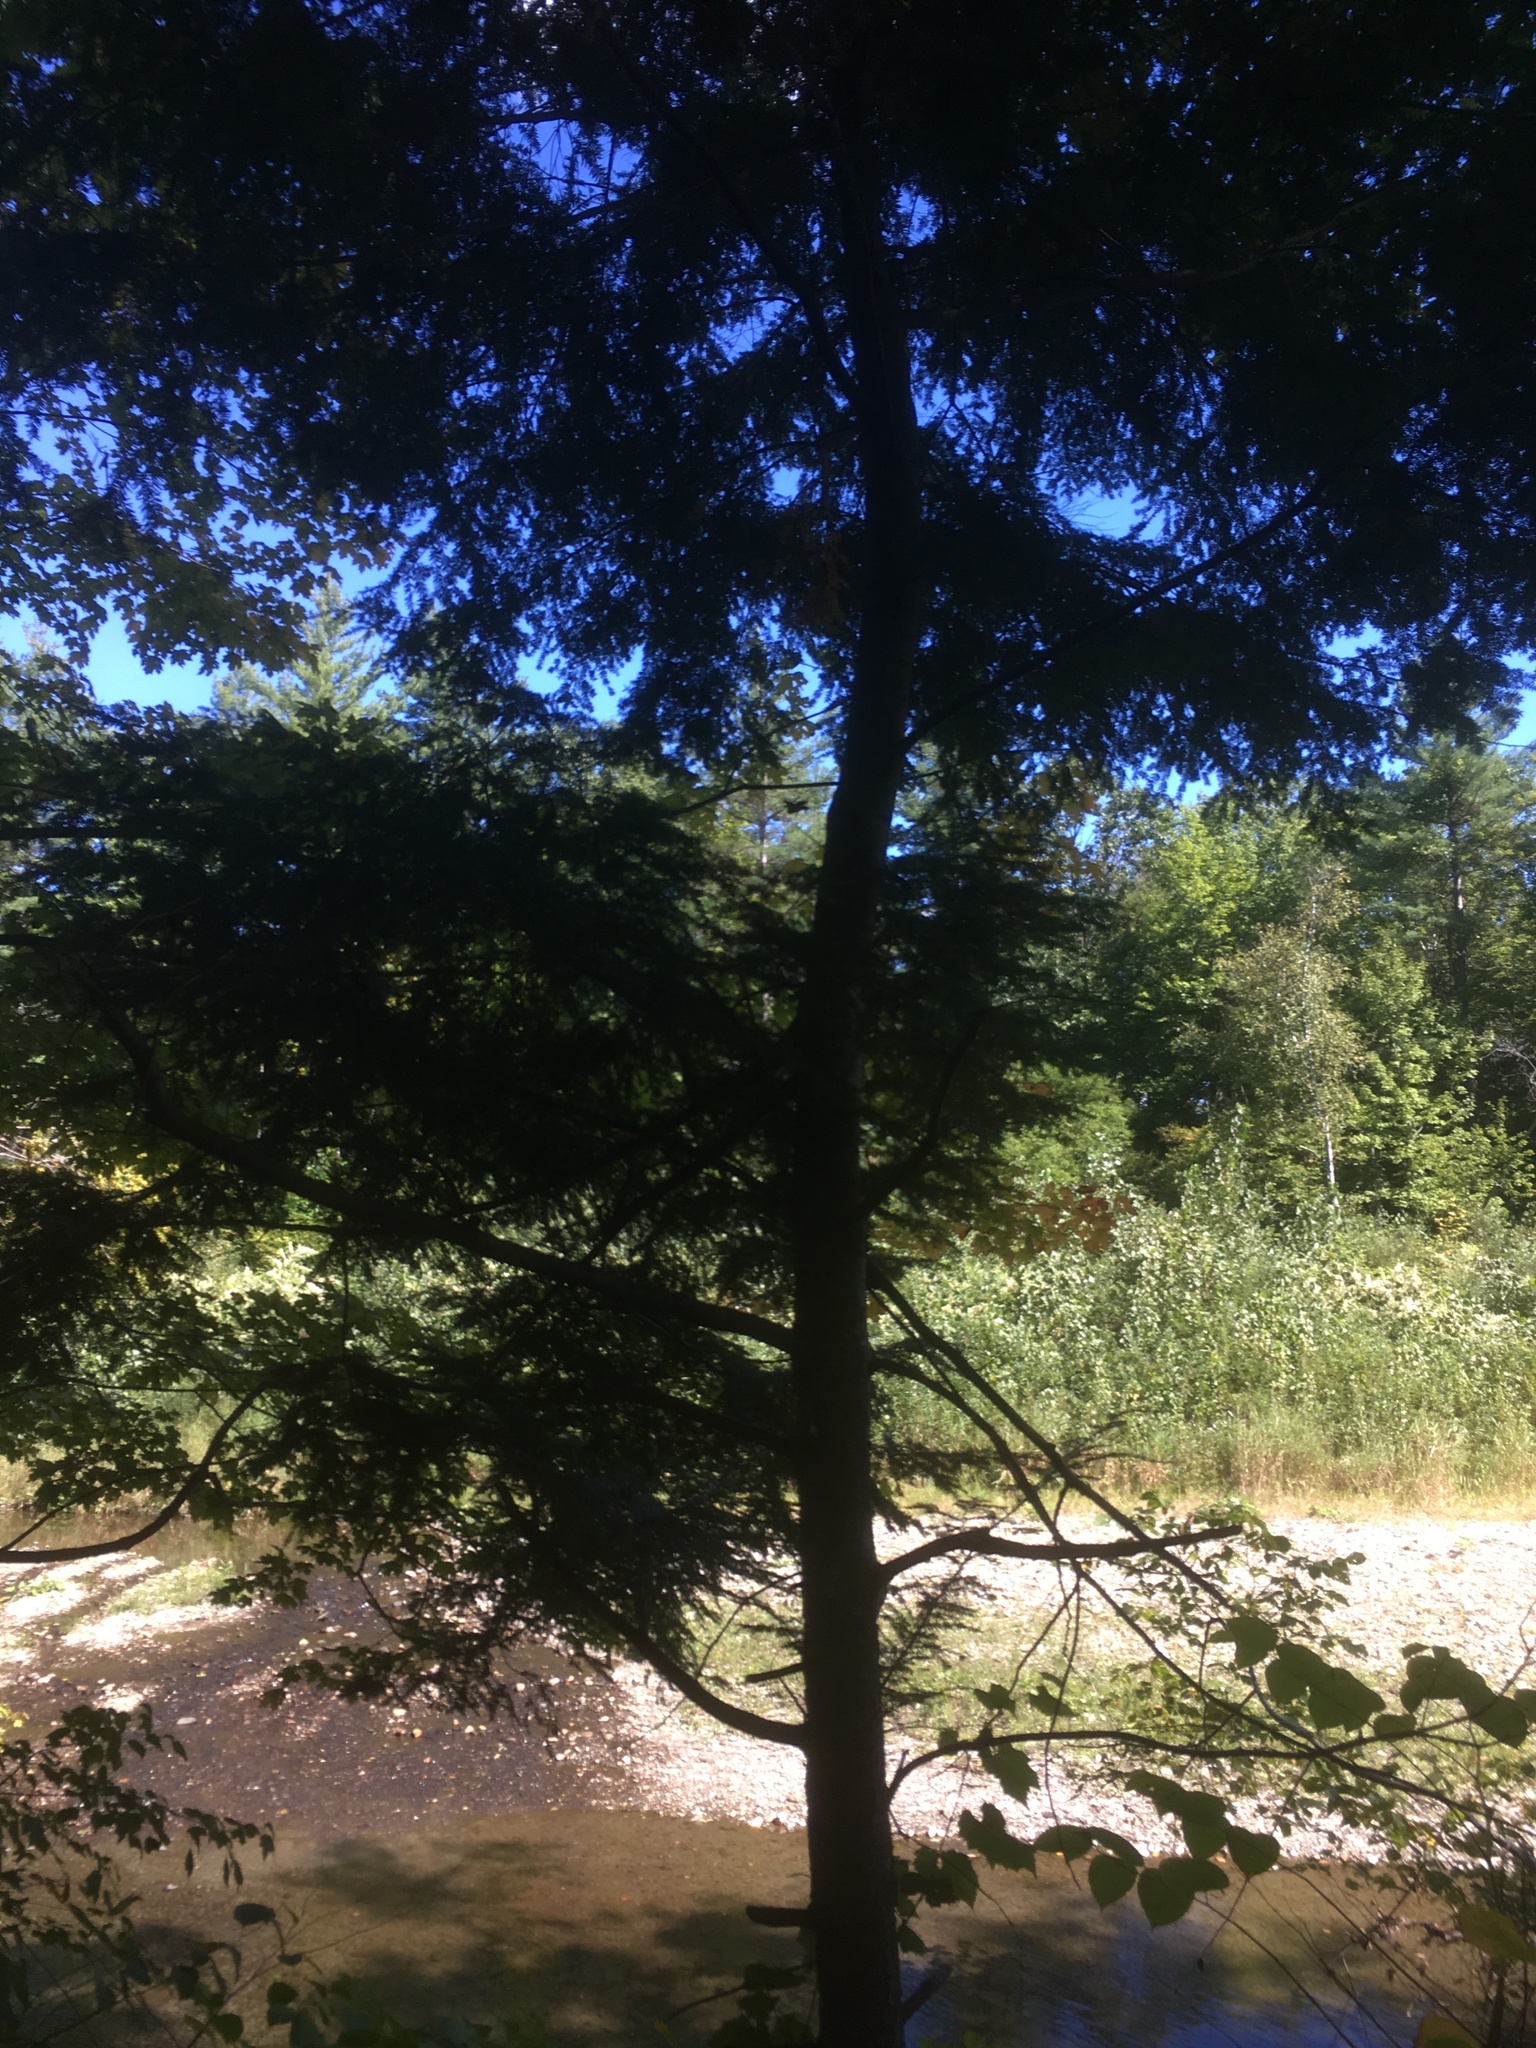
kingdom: Plantae
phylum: Tracheophyta
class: Pinopsida
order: Pinales
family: Pinaceae
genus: Tsuga
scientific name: Tsuga canadensis
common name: Eastern hemlock
